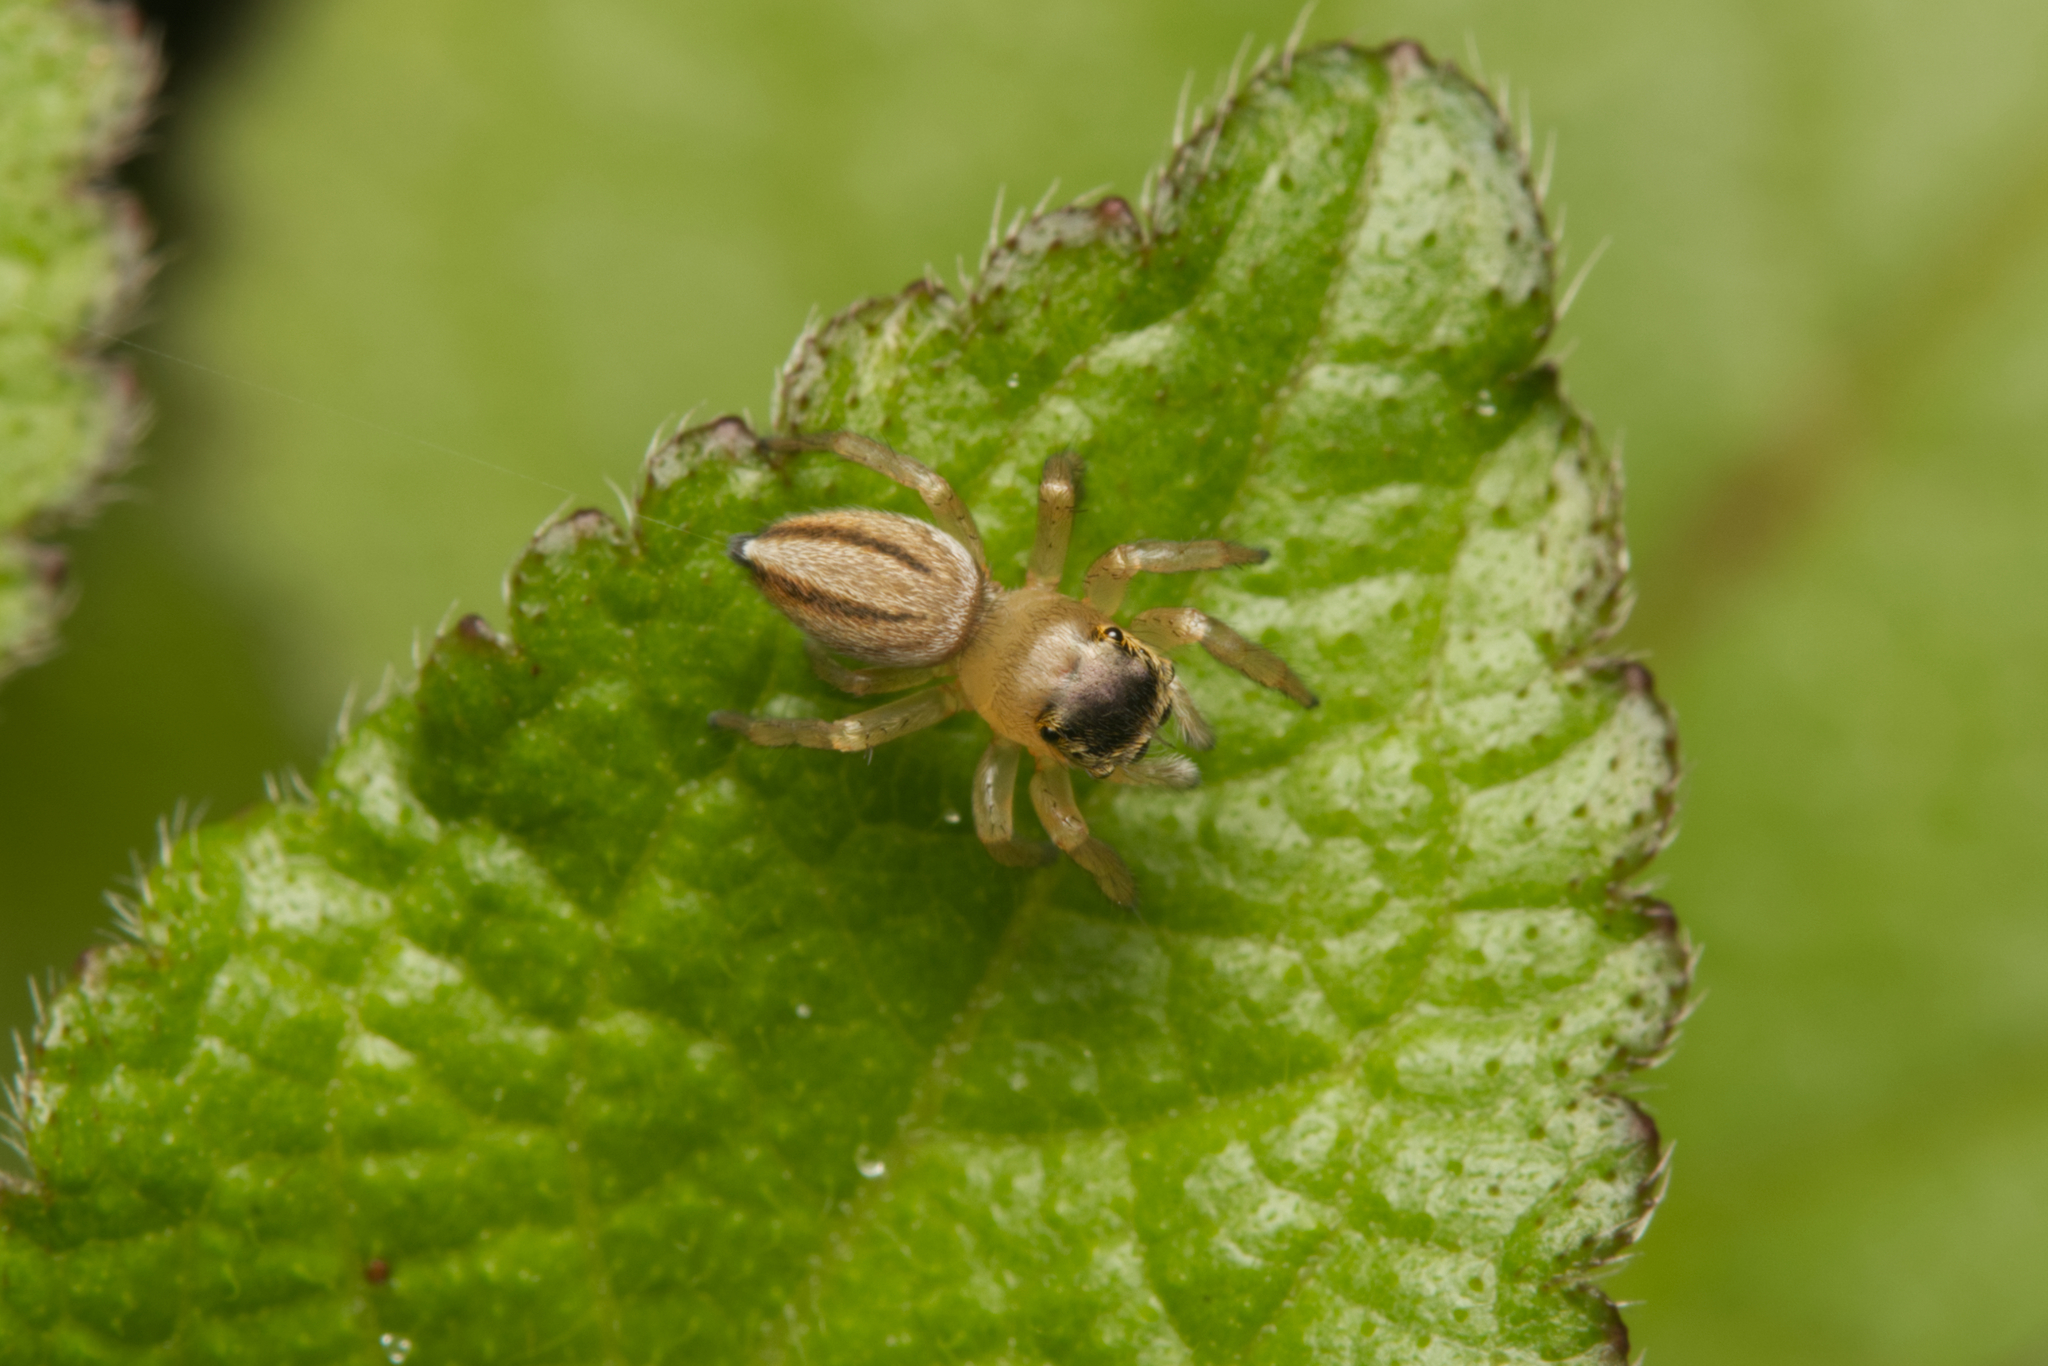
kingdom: Animalia
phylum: Arthropoda
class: Arachnida
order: Araneae
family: Salticidae
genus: Maratus
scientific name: Maratus scutulatus
